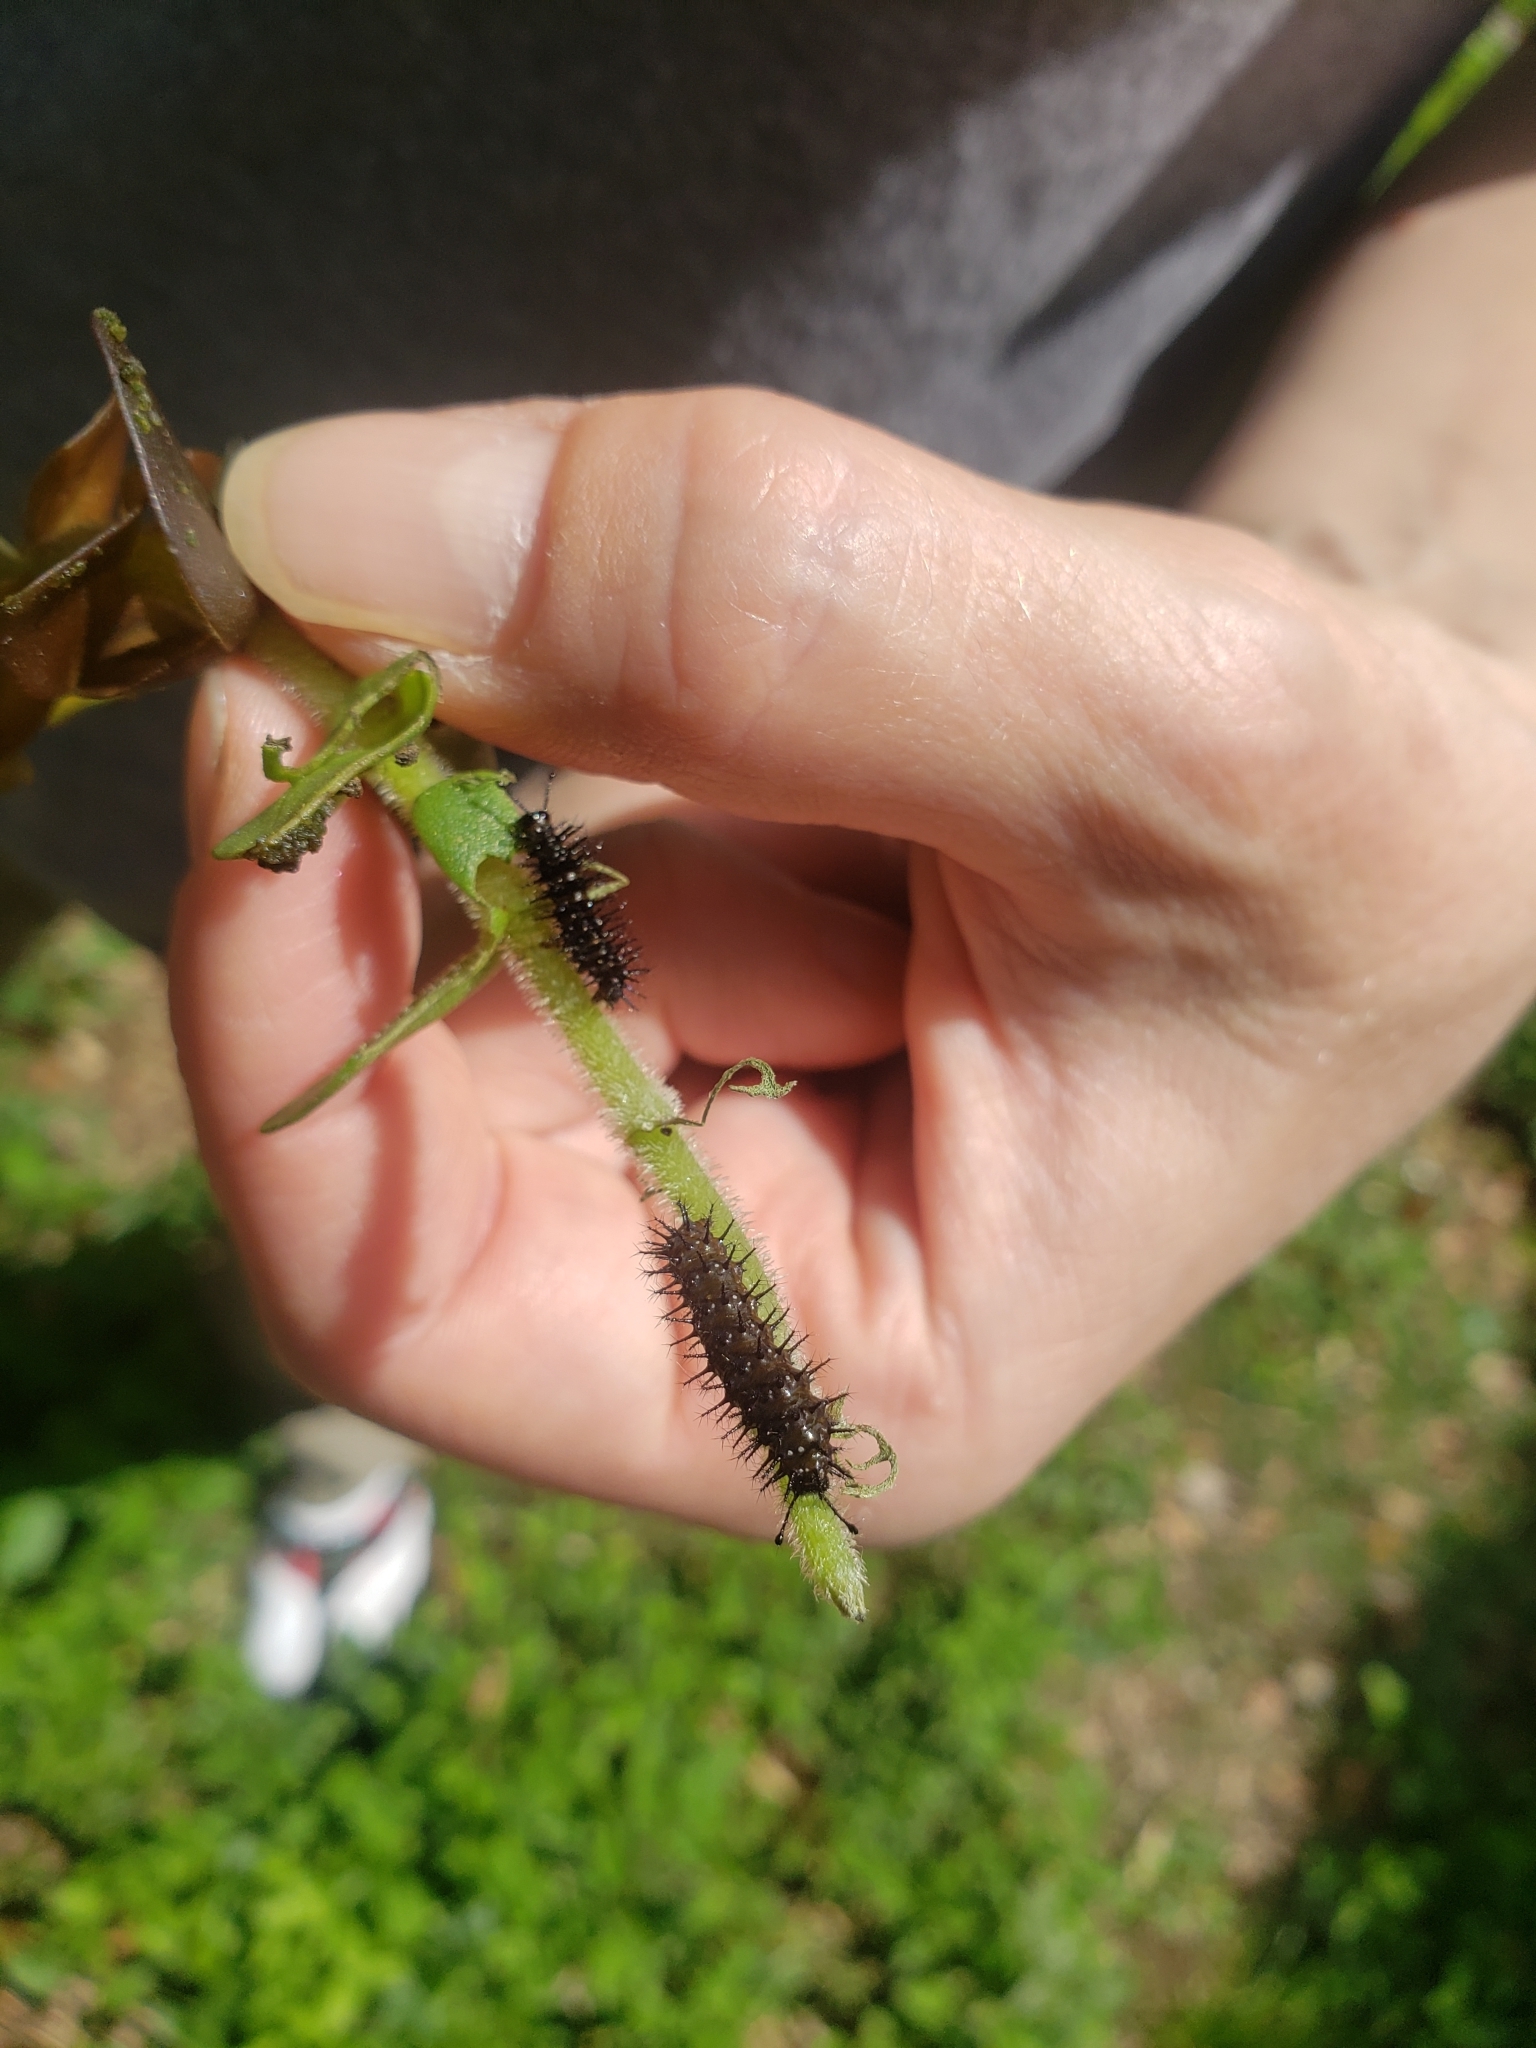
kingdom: Animalia
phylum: Arthropoda
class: Insecta
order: Lepidoptera
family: Nymphalidae
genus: Anartia
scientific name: Anartia jatrophae
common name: White peacock
